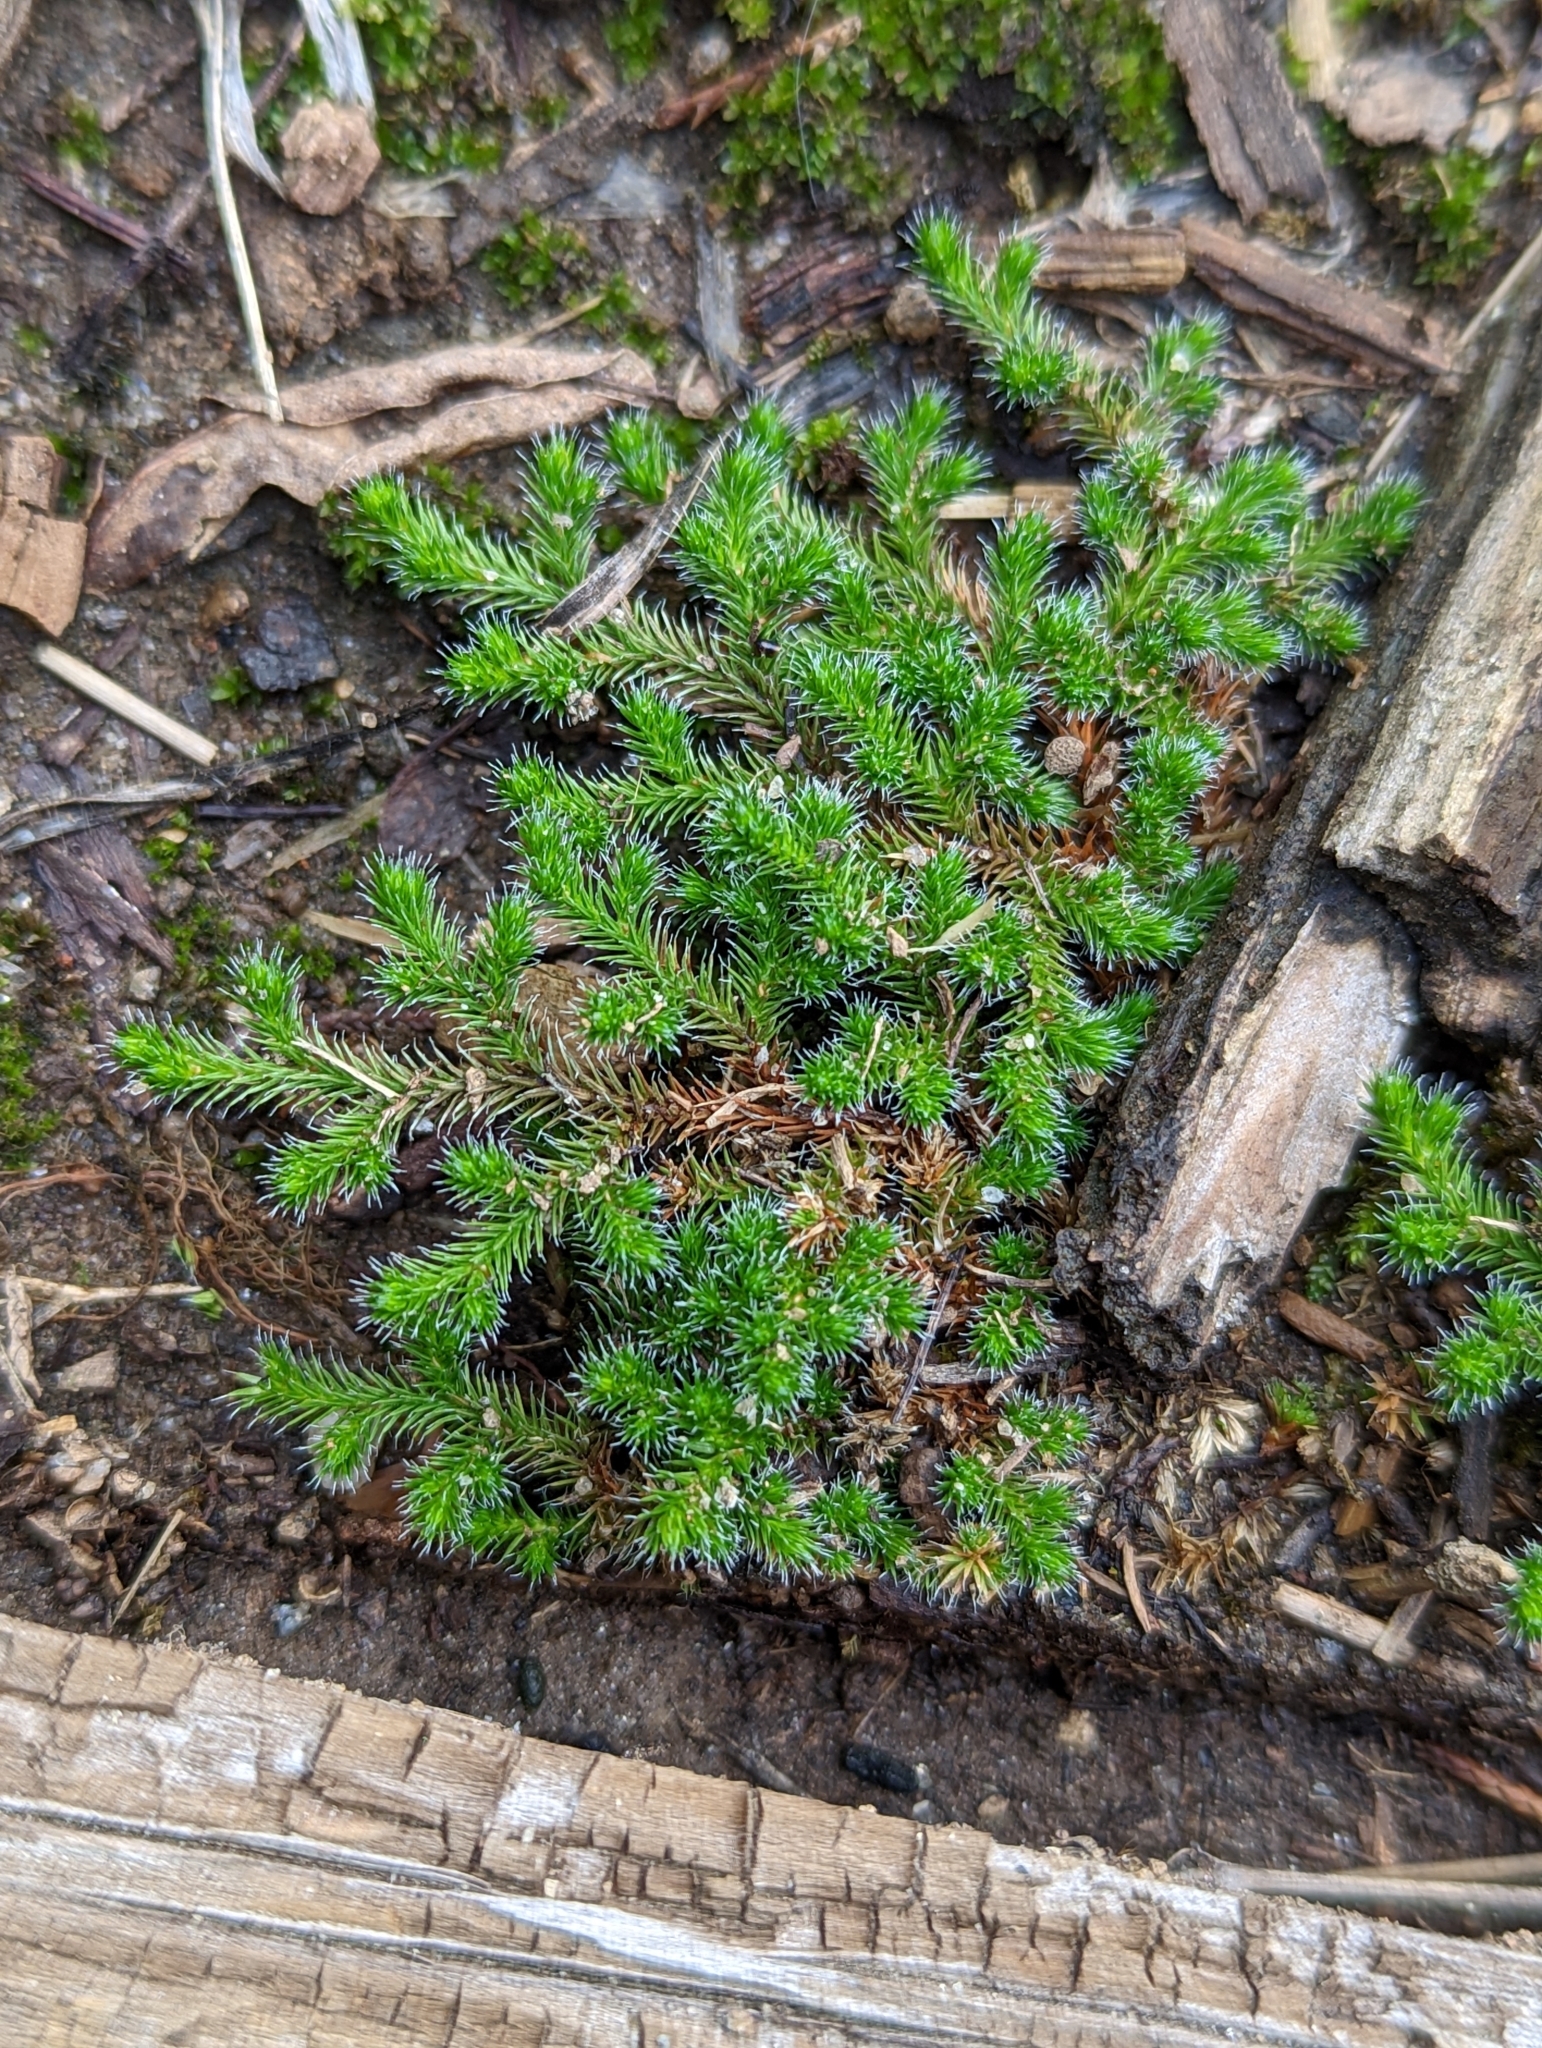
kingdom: Plantae
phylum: Tracheophyta
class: Lycopodiopsida
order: Selaginellales
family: Selaginellaceae
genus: Selaginella
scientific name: Selaginella rupestris
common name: Dwarf spikemoss
